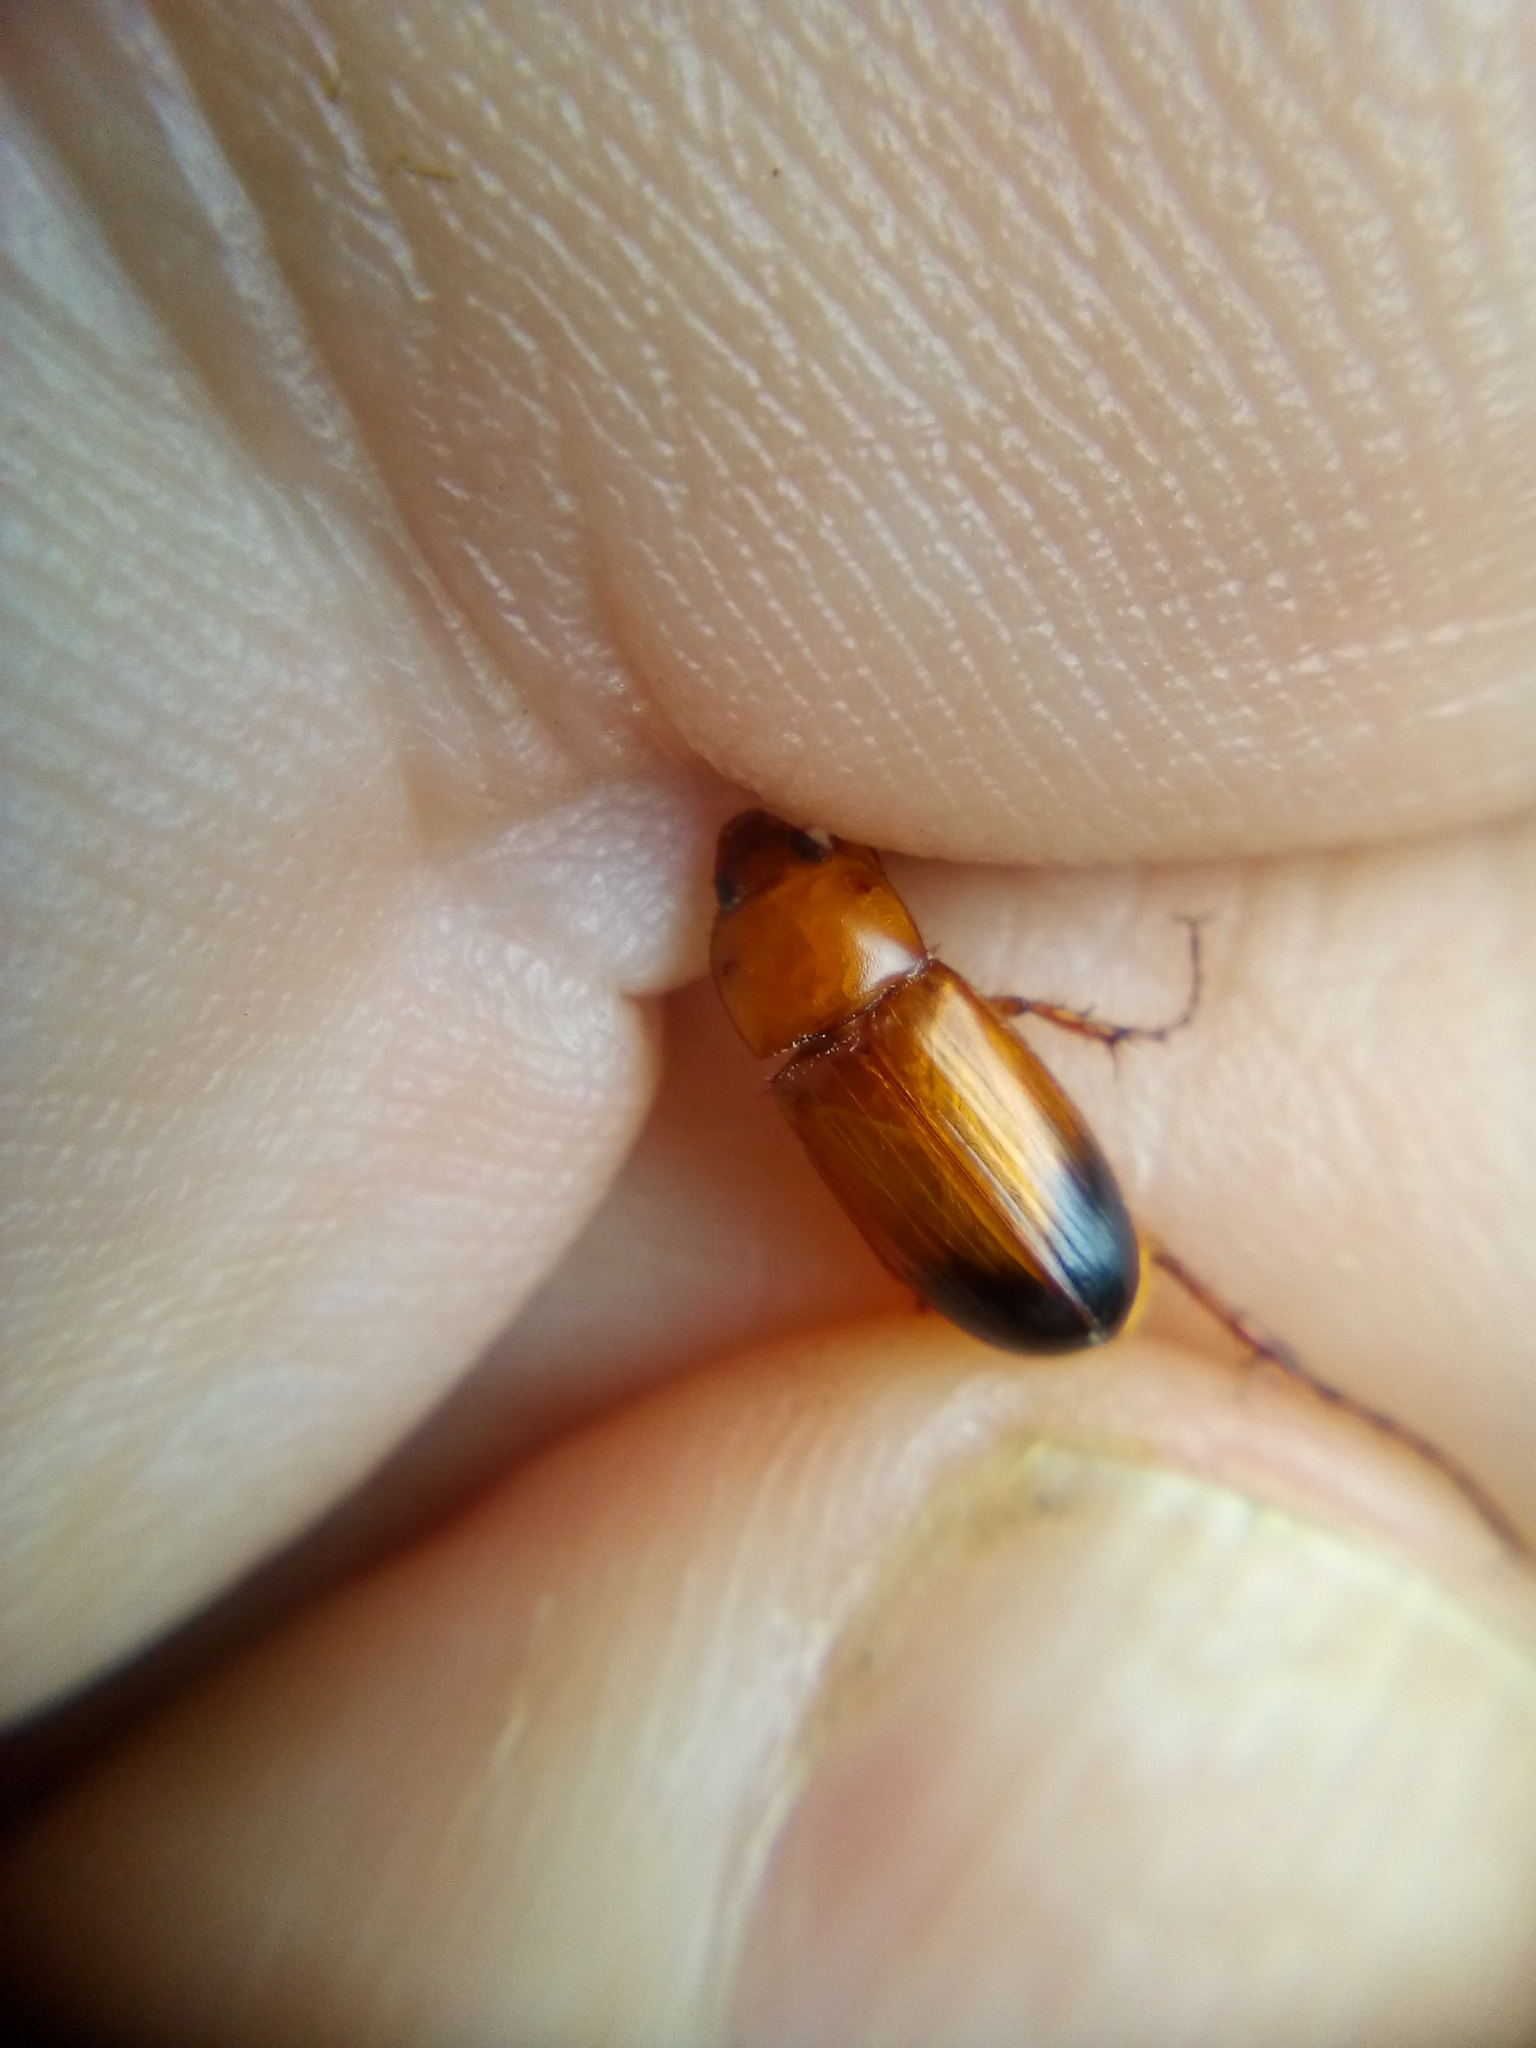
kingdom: Animalia
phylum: Arthropoda
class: Insecta
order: Coleoptera
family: Scarabaeidae
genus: Phyllotocus
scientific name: Phyllotocus macleayi
